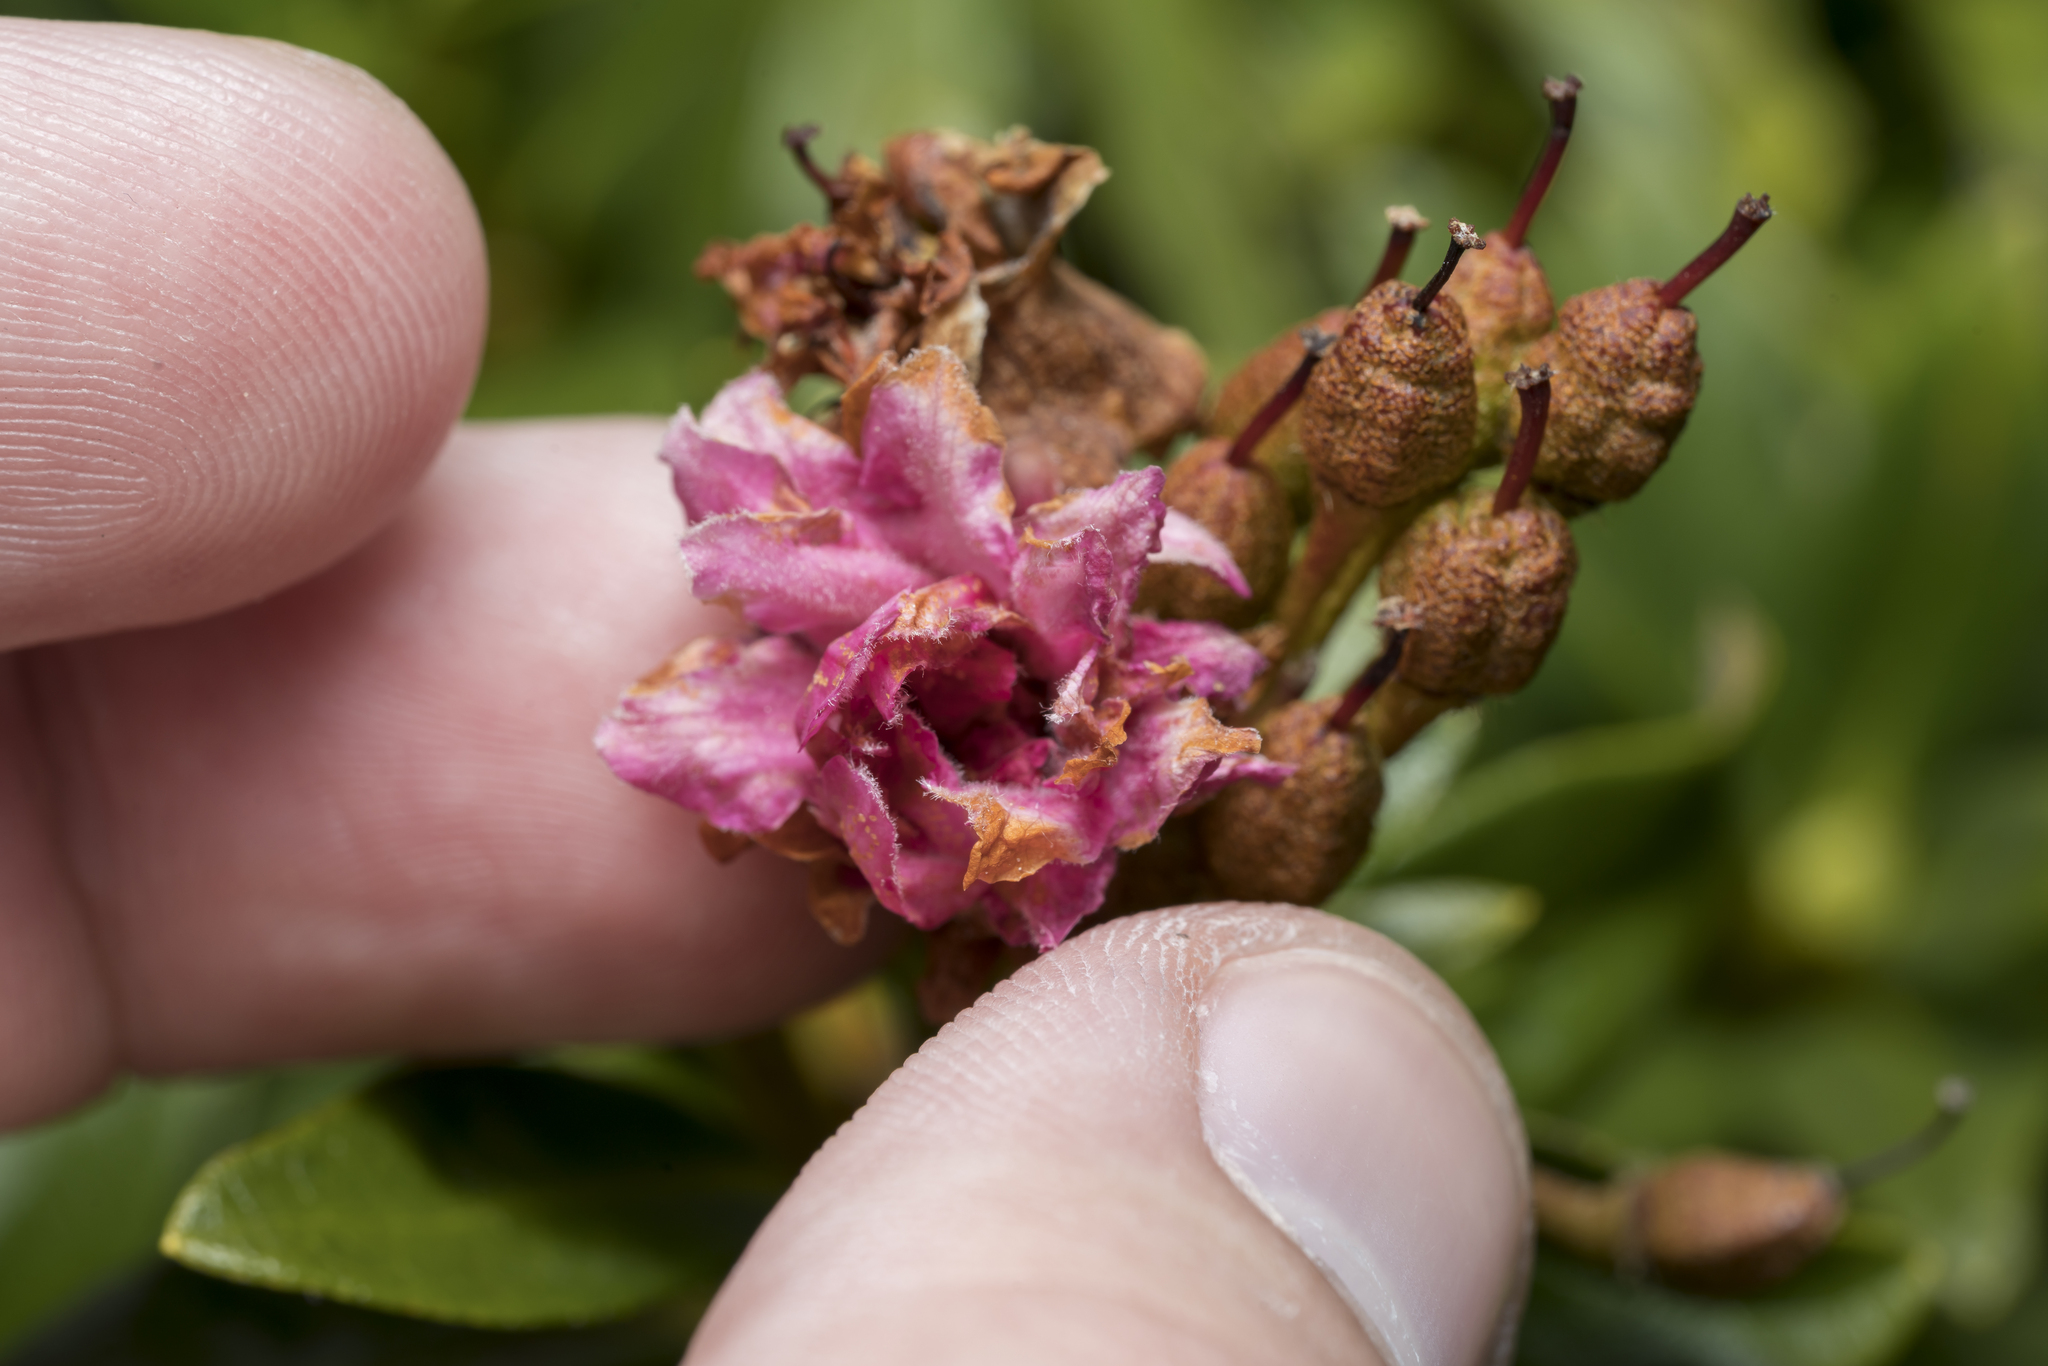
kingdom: Plantae
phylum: Tracheophyta
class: Magnoliopsida
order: Ericales
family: Ericaceae
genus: Rhododendron
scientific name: Rhododendron ferrugineum
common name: Alpenrose
